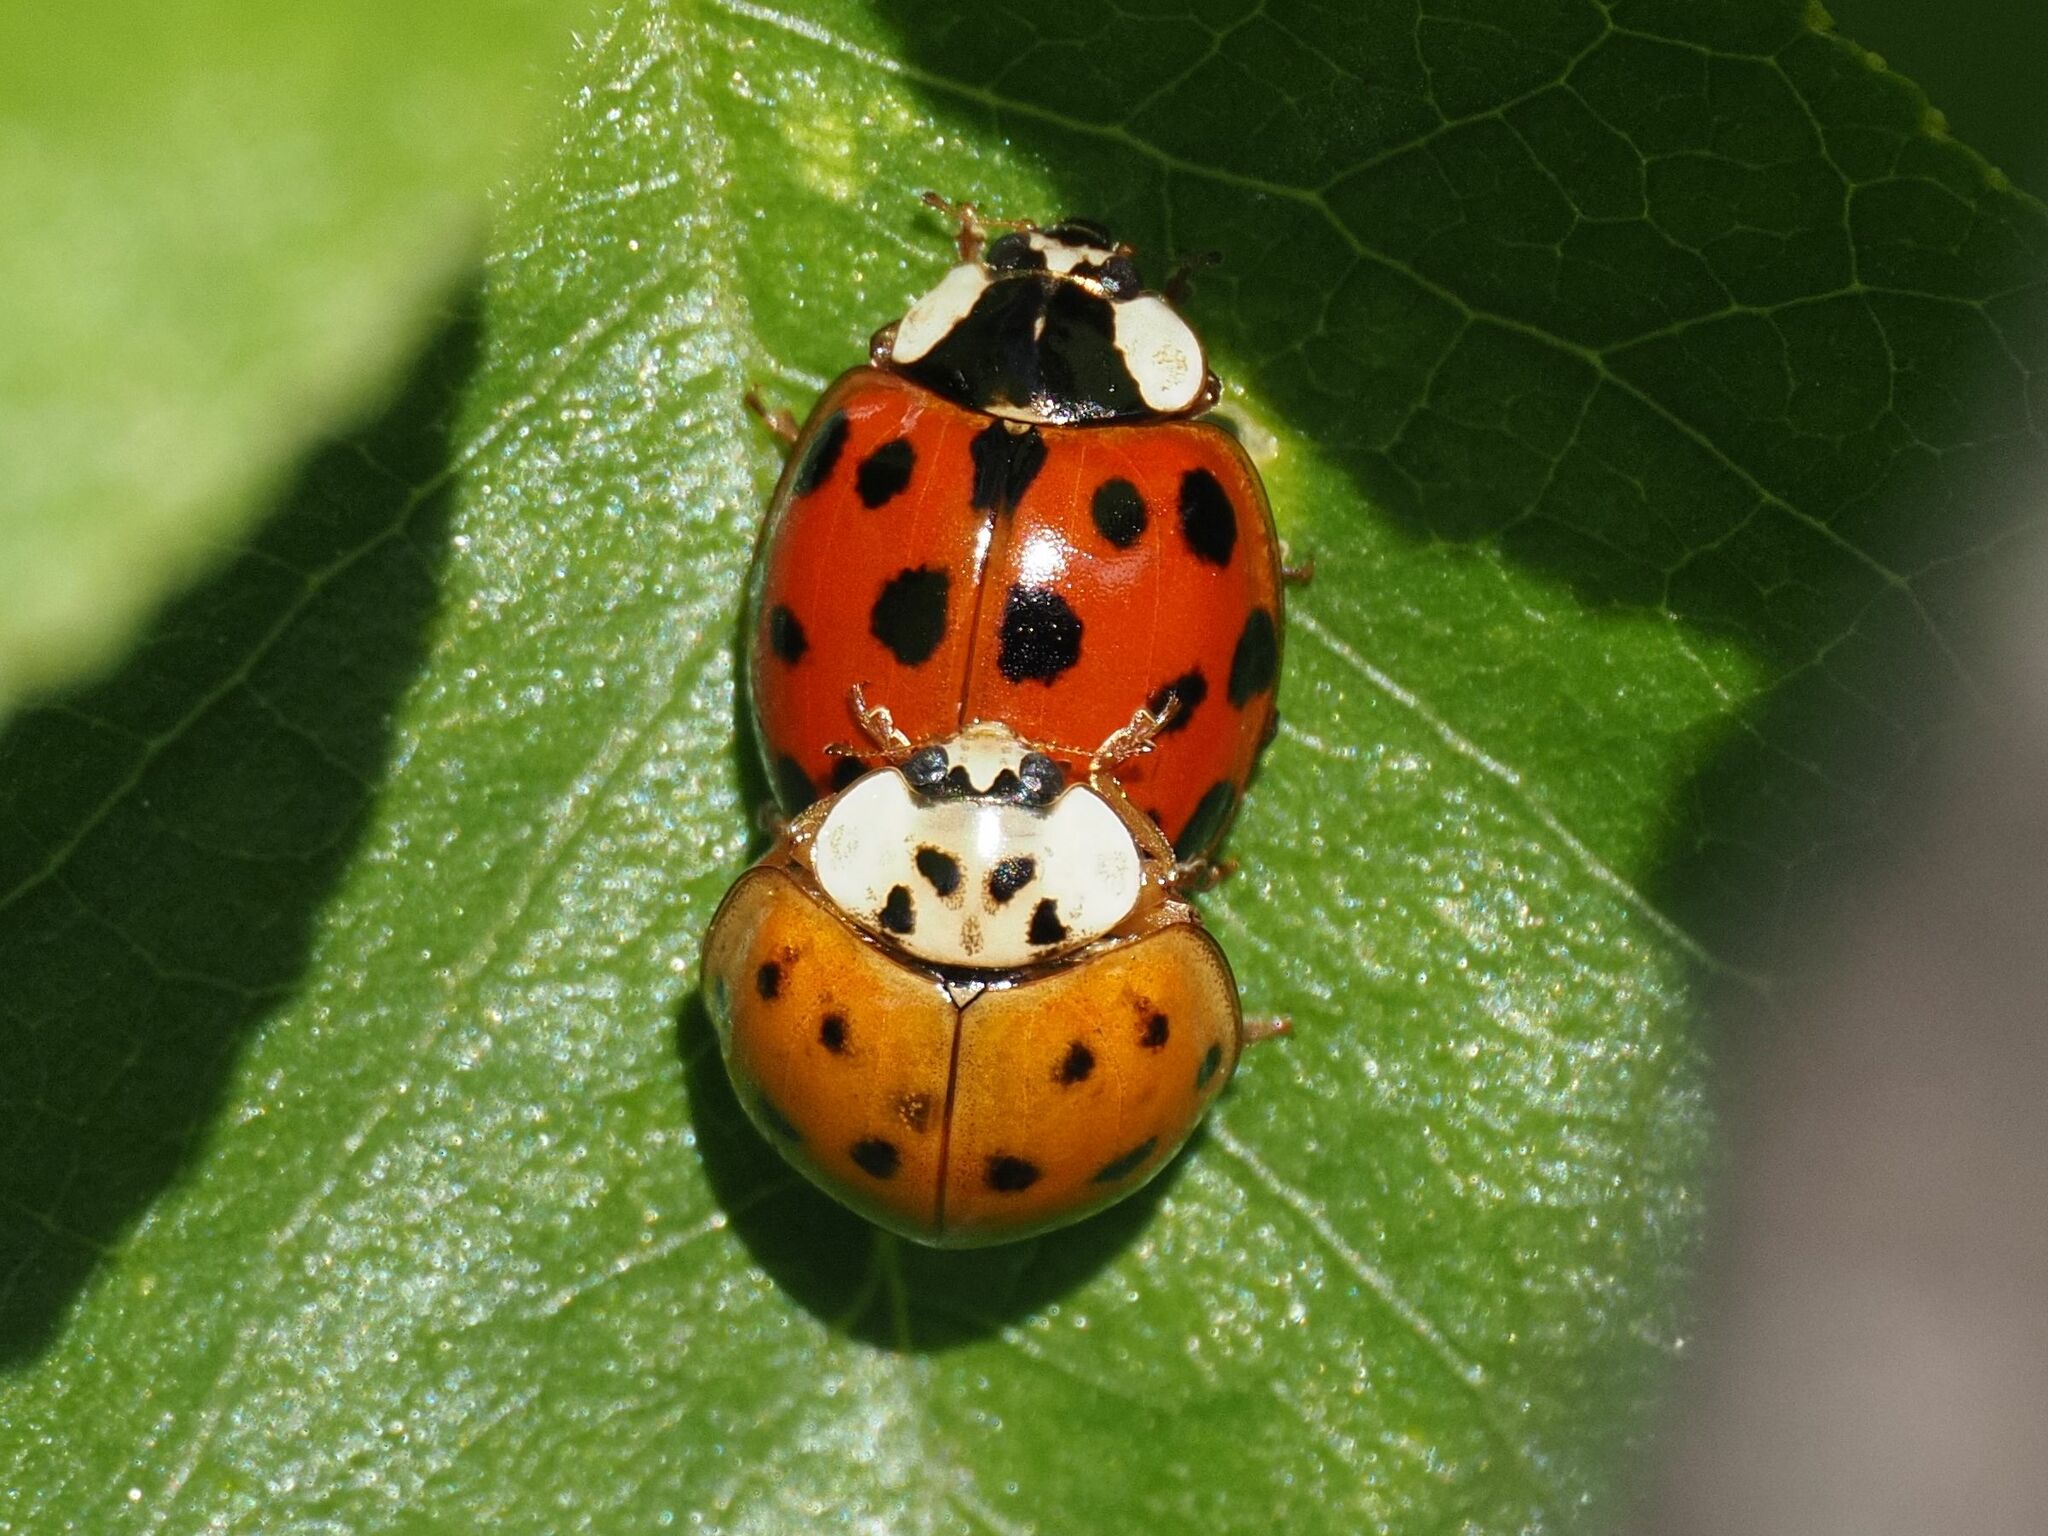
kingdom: Animalia
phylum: Arthropoda
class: Insecta
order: Coleoptera
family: Coccinellidae
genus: Harmonia
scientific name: Harmonia axyridis
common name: Harlequin ladybird
